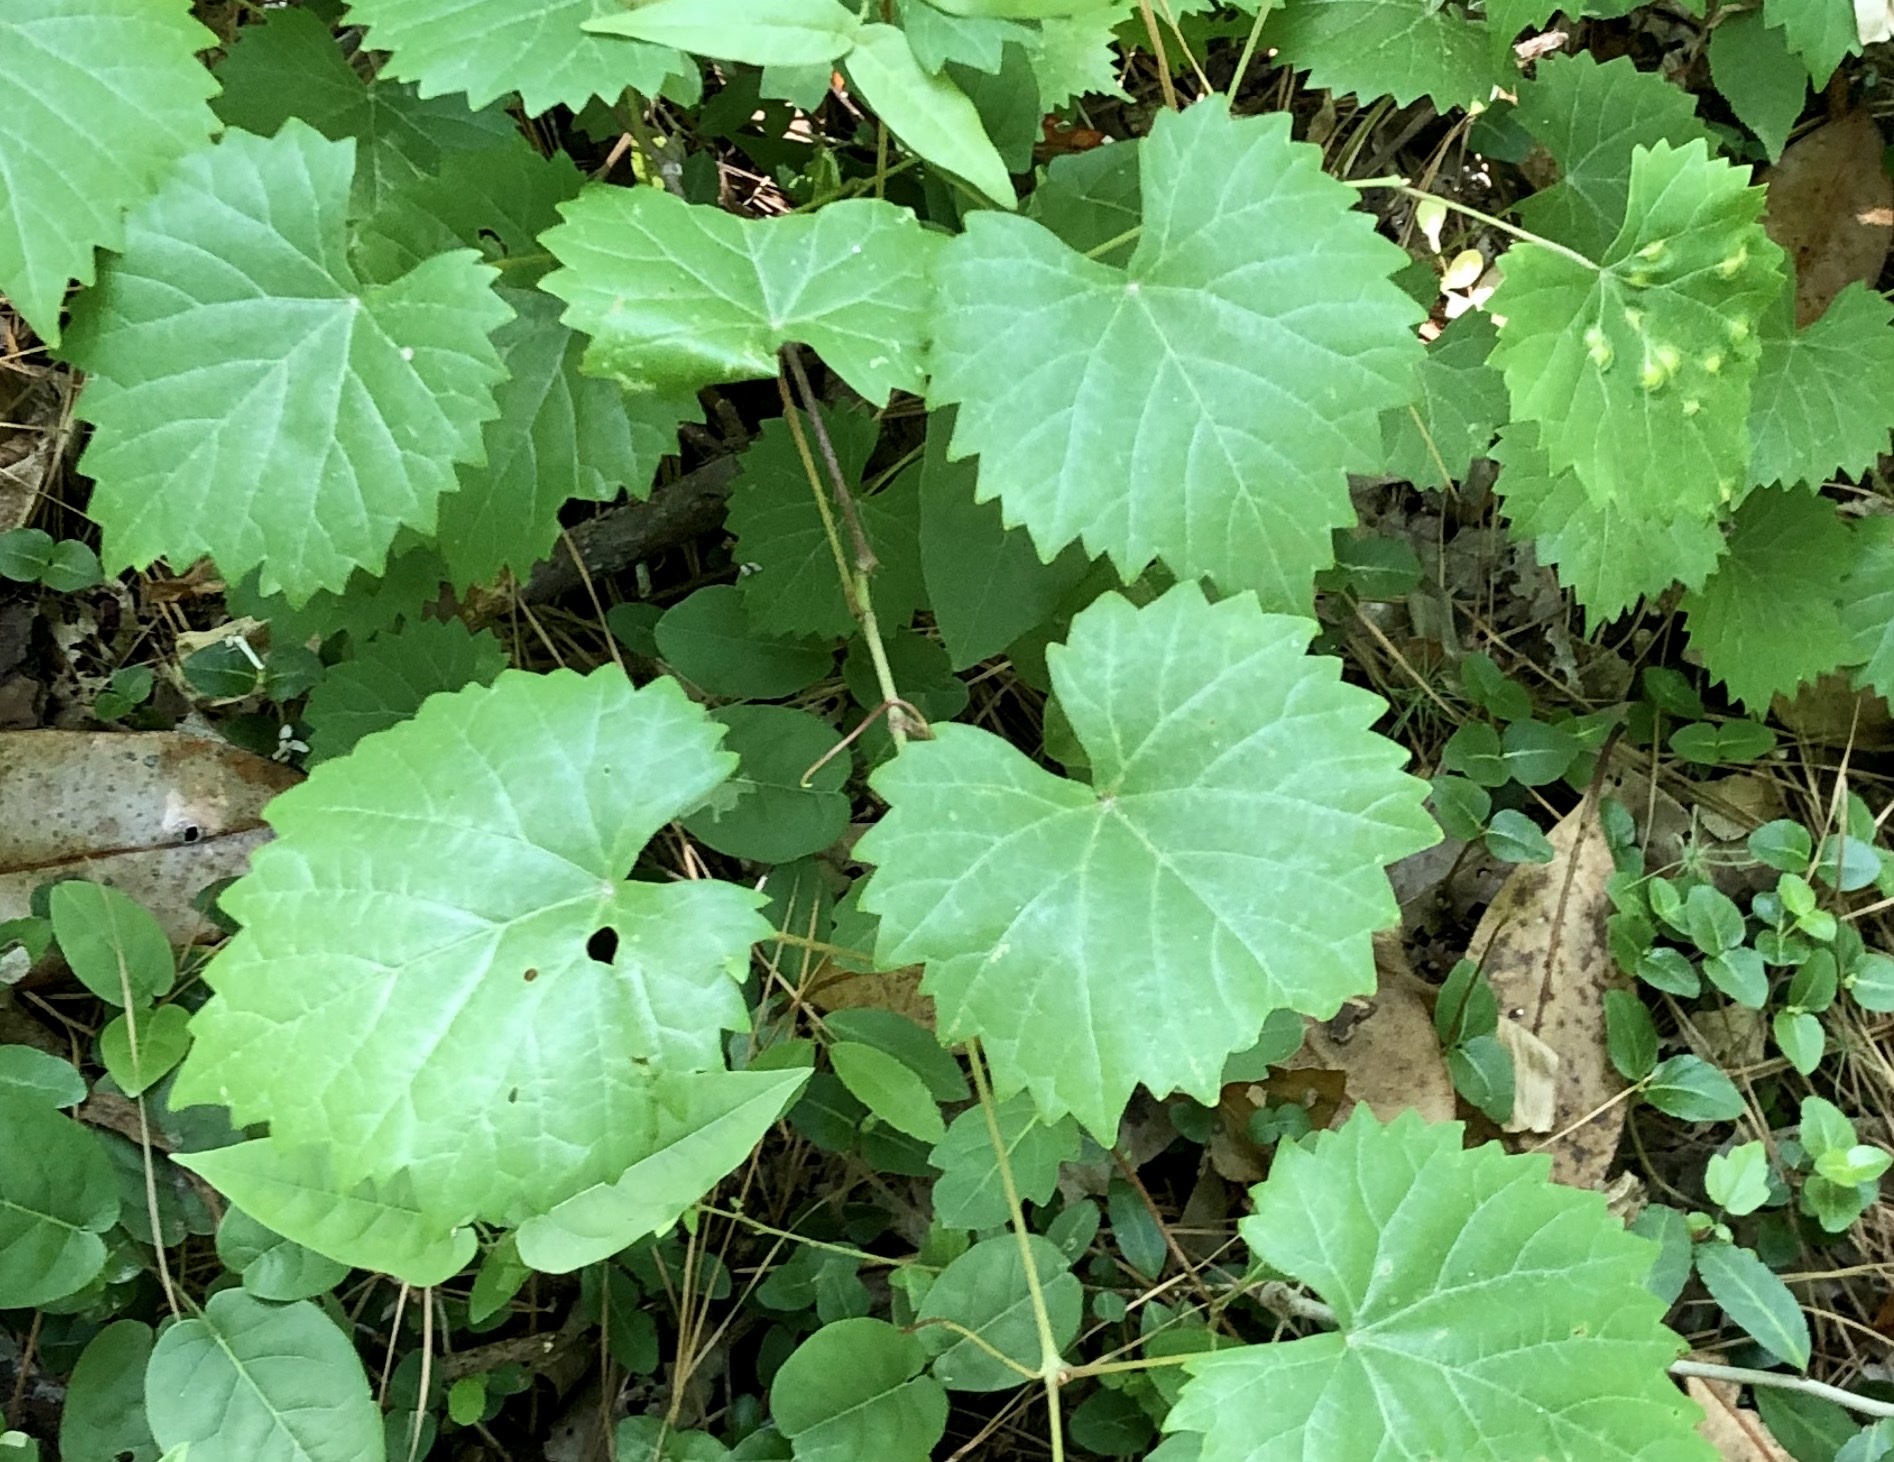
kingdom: Plantae
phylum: Tracheophyta
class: Magnoliopsida
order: Vitales
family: Vitaceae
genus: Vitis
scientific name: Vitis rotundifolia
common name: Muscadine grape
